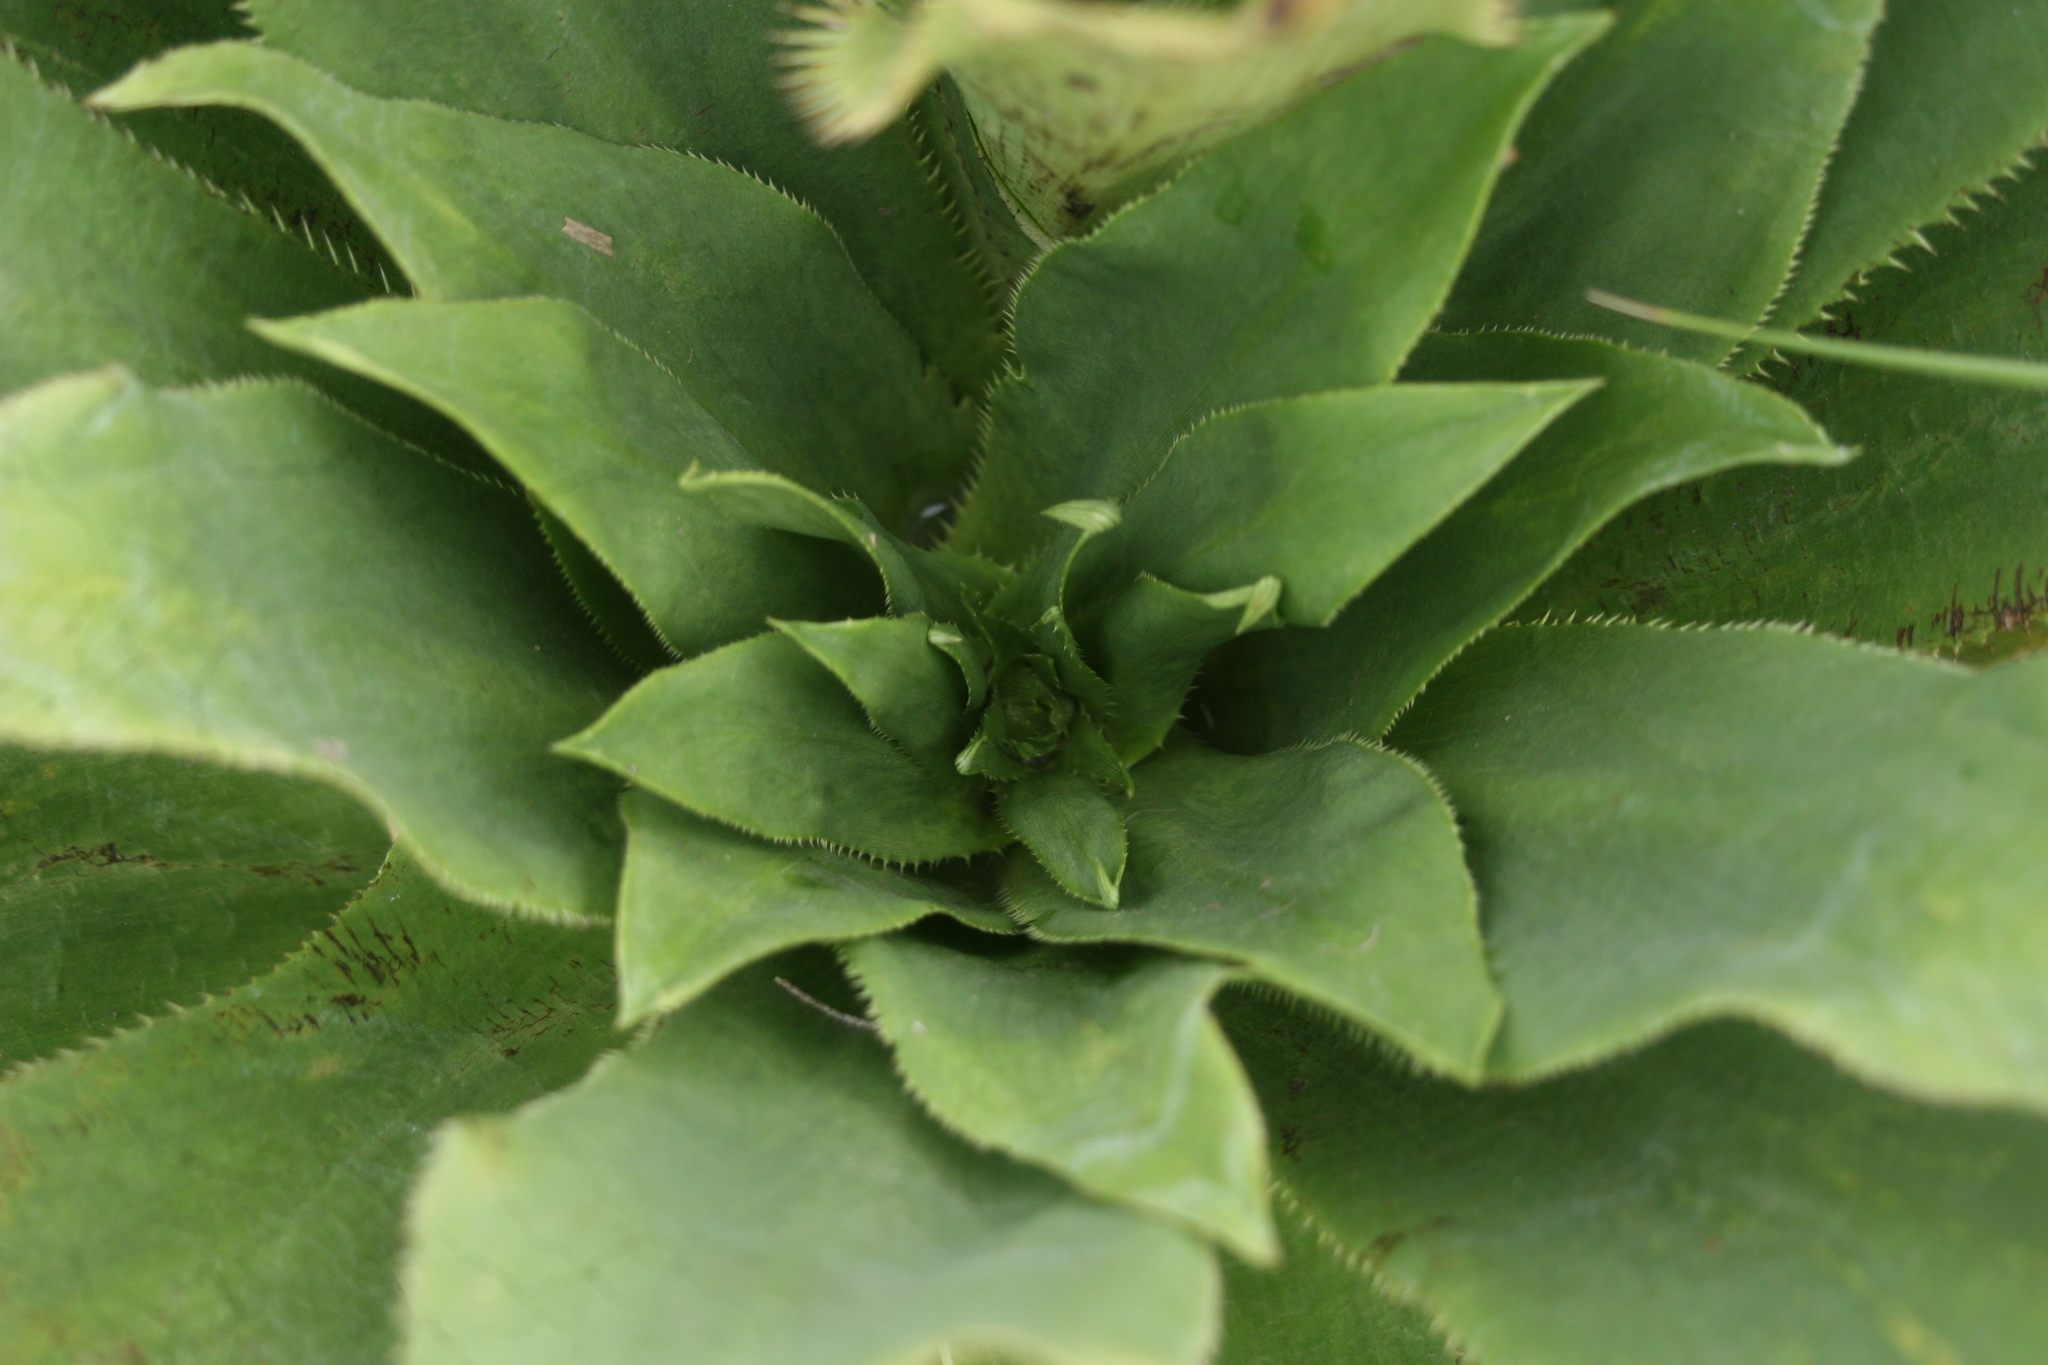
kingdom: Plantae
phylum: Tracheophyta
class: Magnoliopsida
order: Apiales
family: Apiaceae
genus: Eryngium
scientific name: Eryngium elegans
